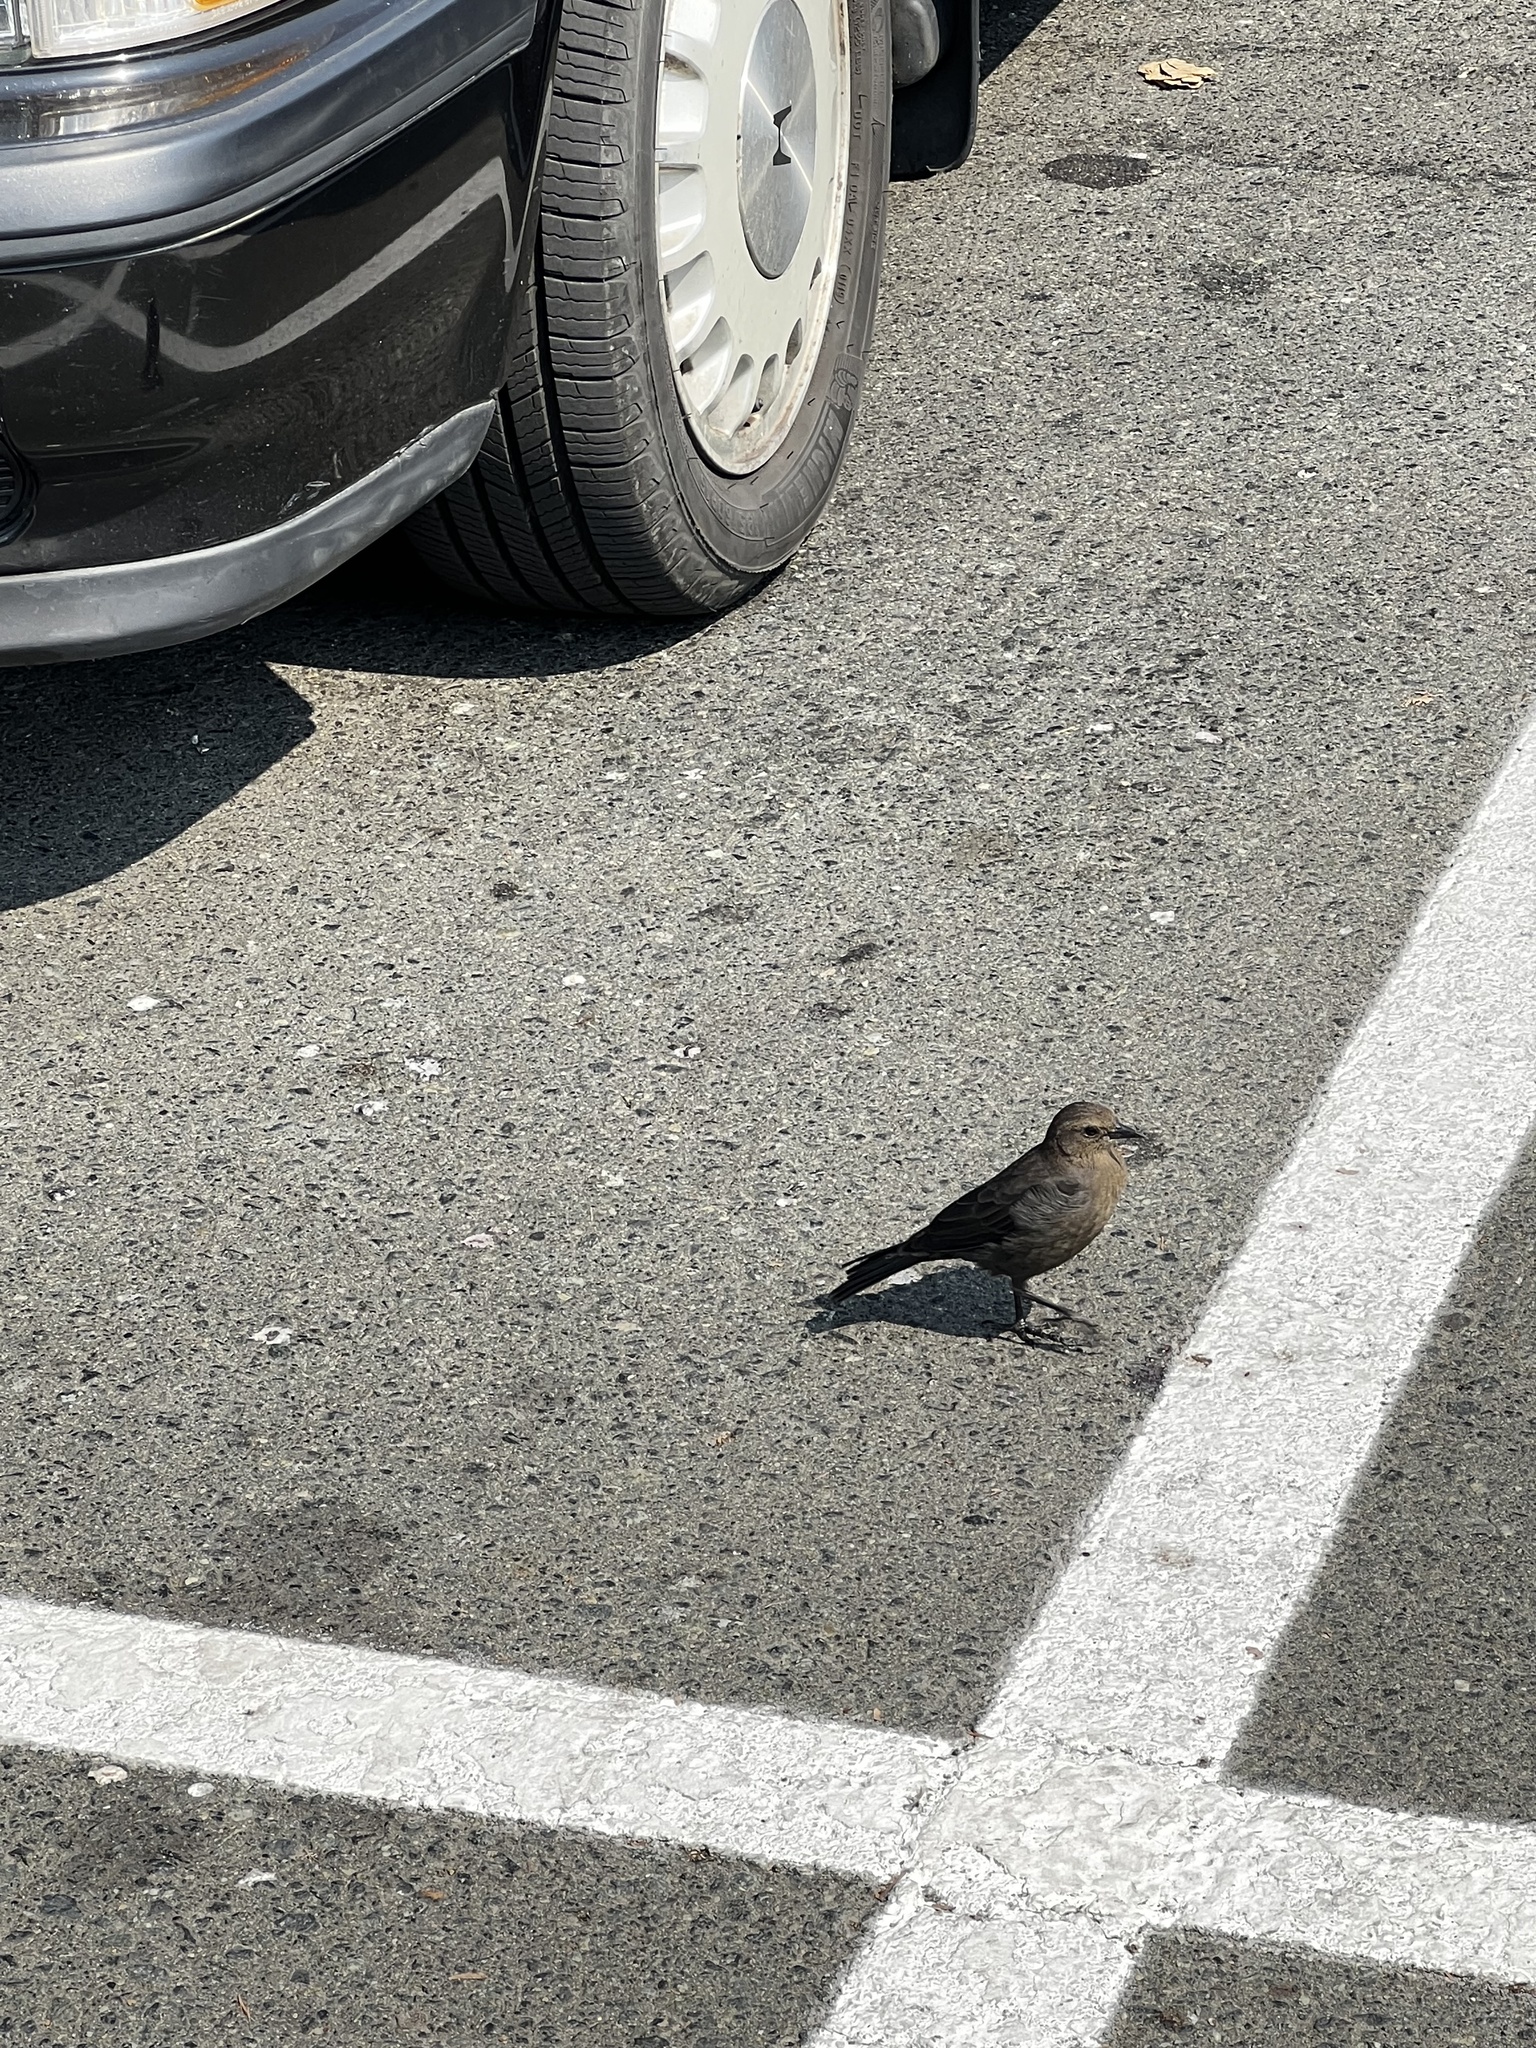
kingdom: Animalia
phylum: Chordata
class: Aves
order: Passeriformes
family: Icteridae
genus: Euphagus
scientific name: Euphagus cyanocephalus
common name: Brewer's blackbird
